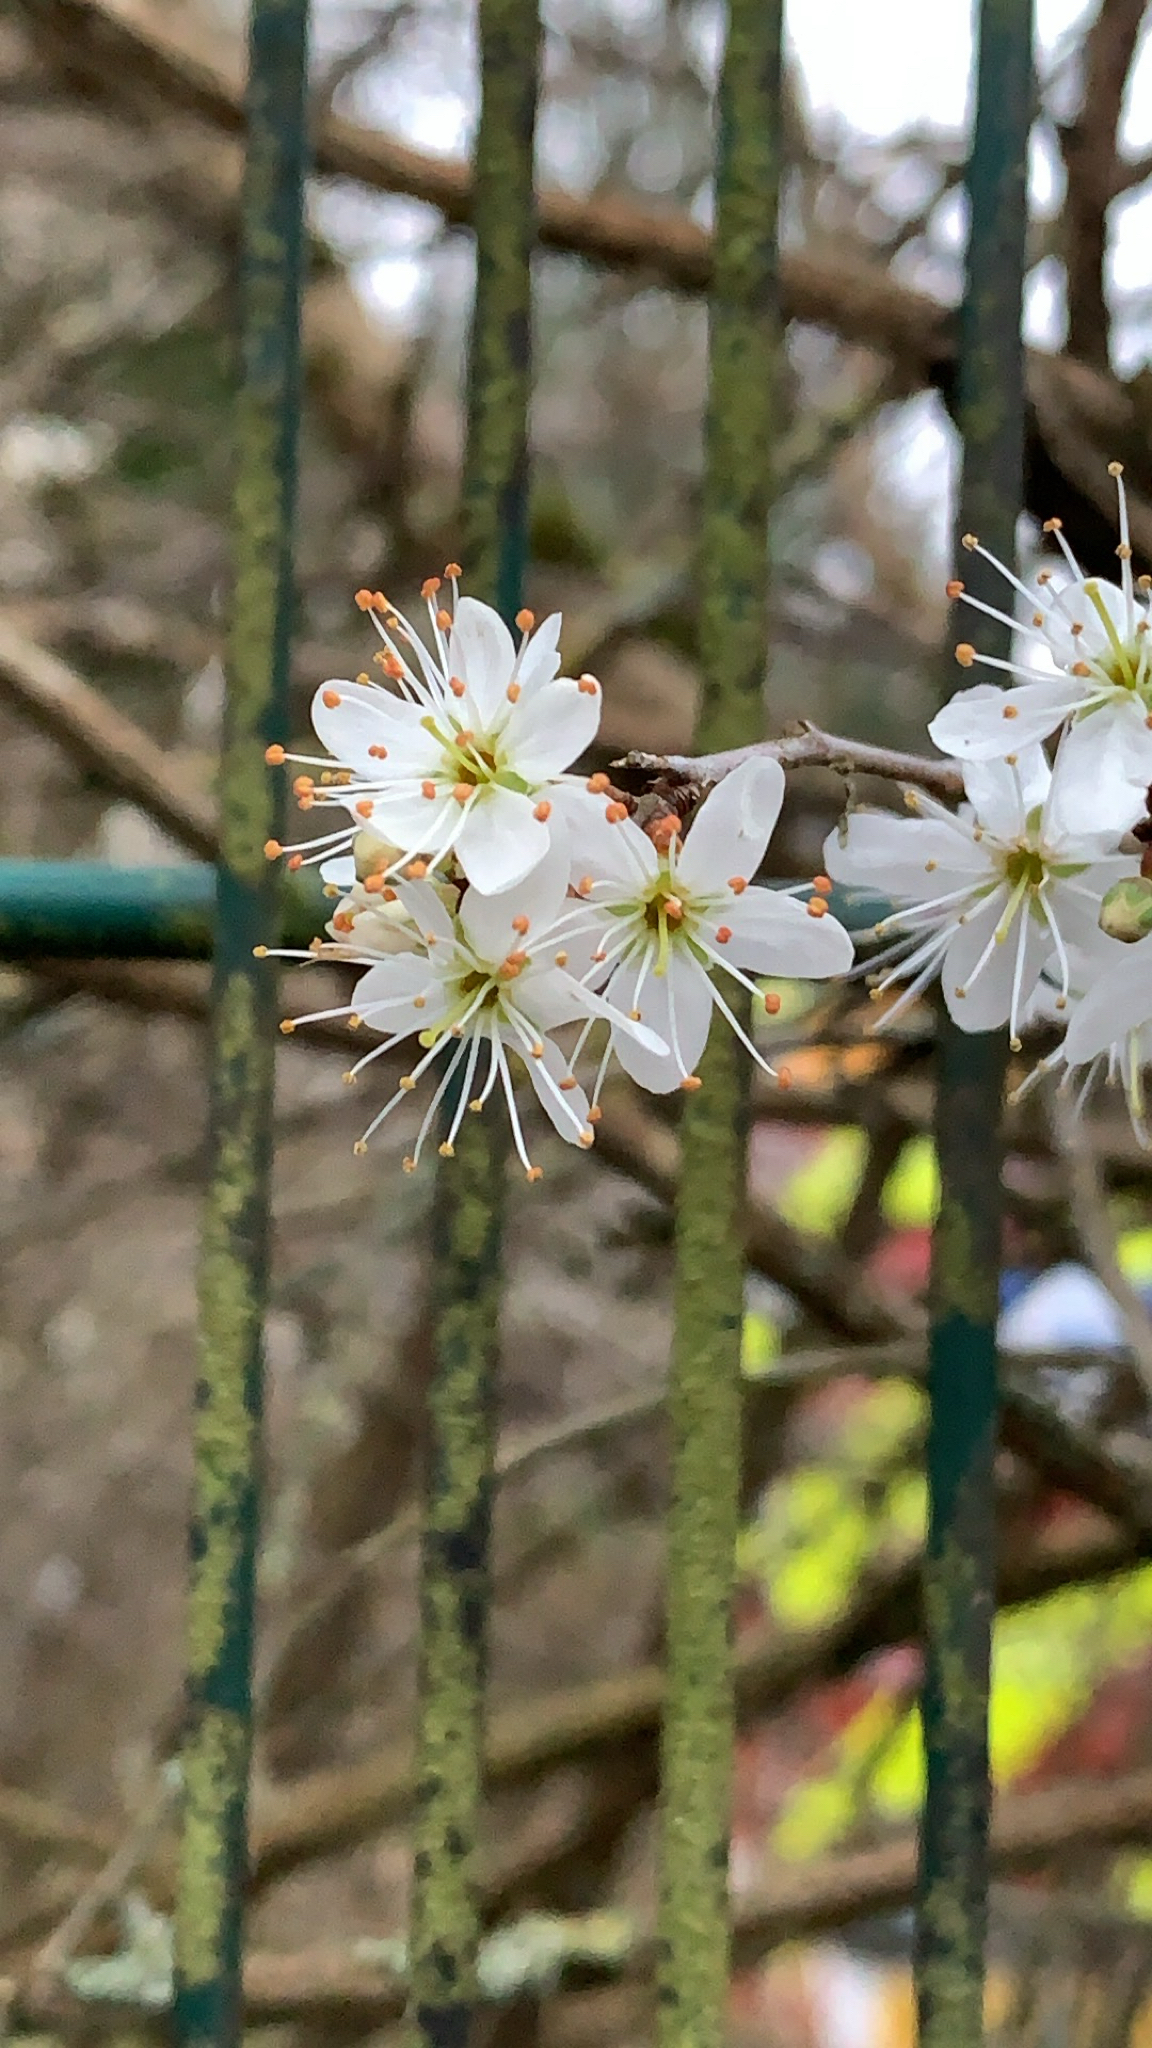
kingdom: Plantae
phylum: Tracheophyta
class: Magnoliopsida
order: Rosales
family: Rosaceae
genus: Prunus
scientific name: Prunus cerasifera
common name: Cherry plum
